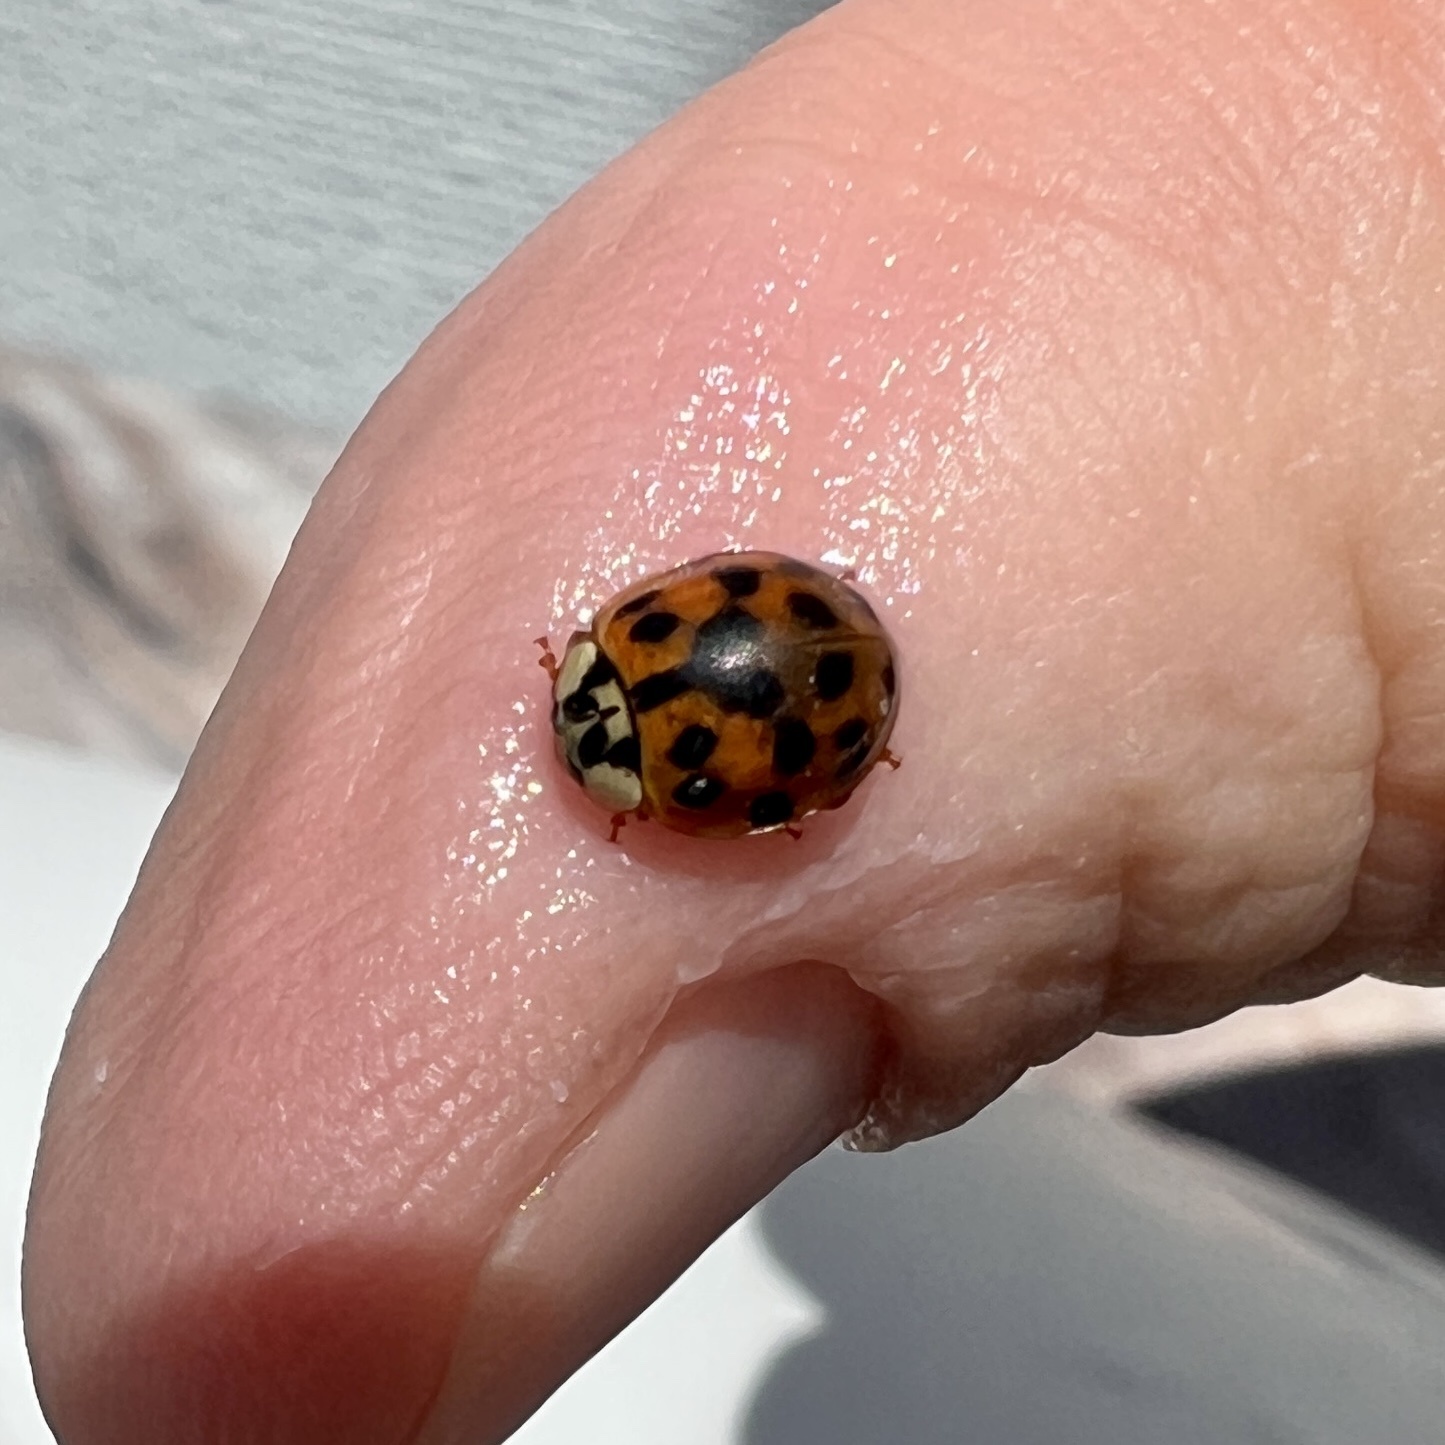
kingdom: Animalia
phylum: Arthropoda
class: Insecta
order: Coleoptera
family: Coccinellidae
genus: Harmonia
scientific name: Harmonia axyridis
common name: Harlequin ladybird
